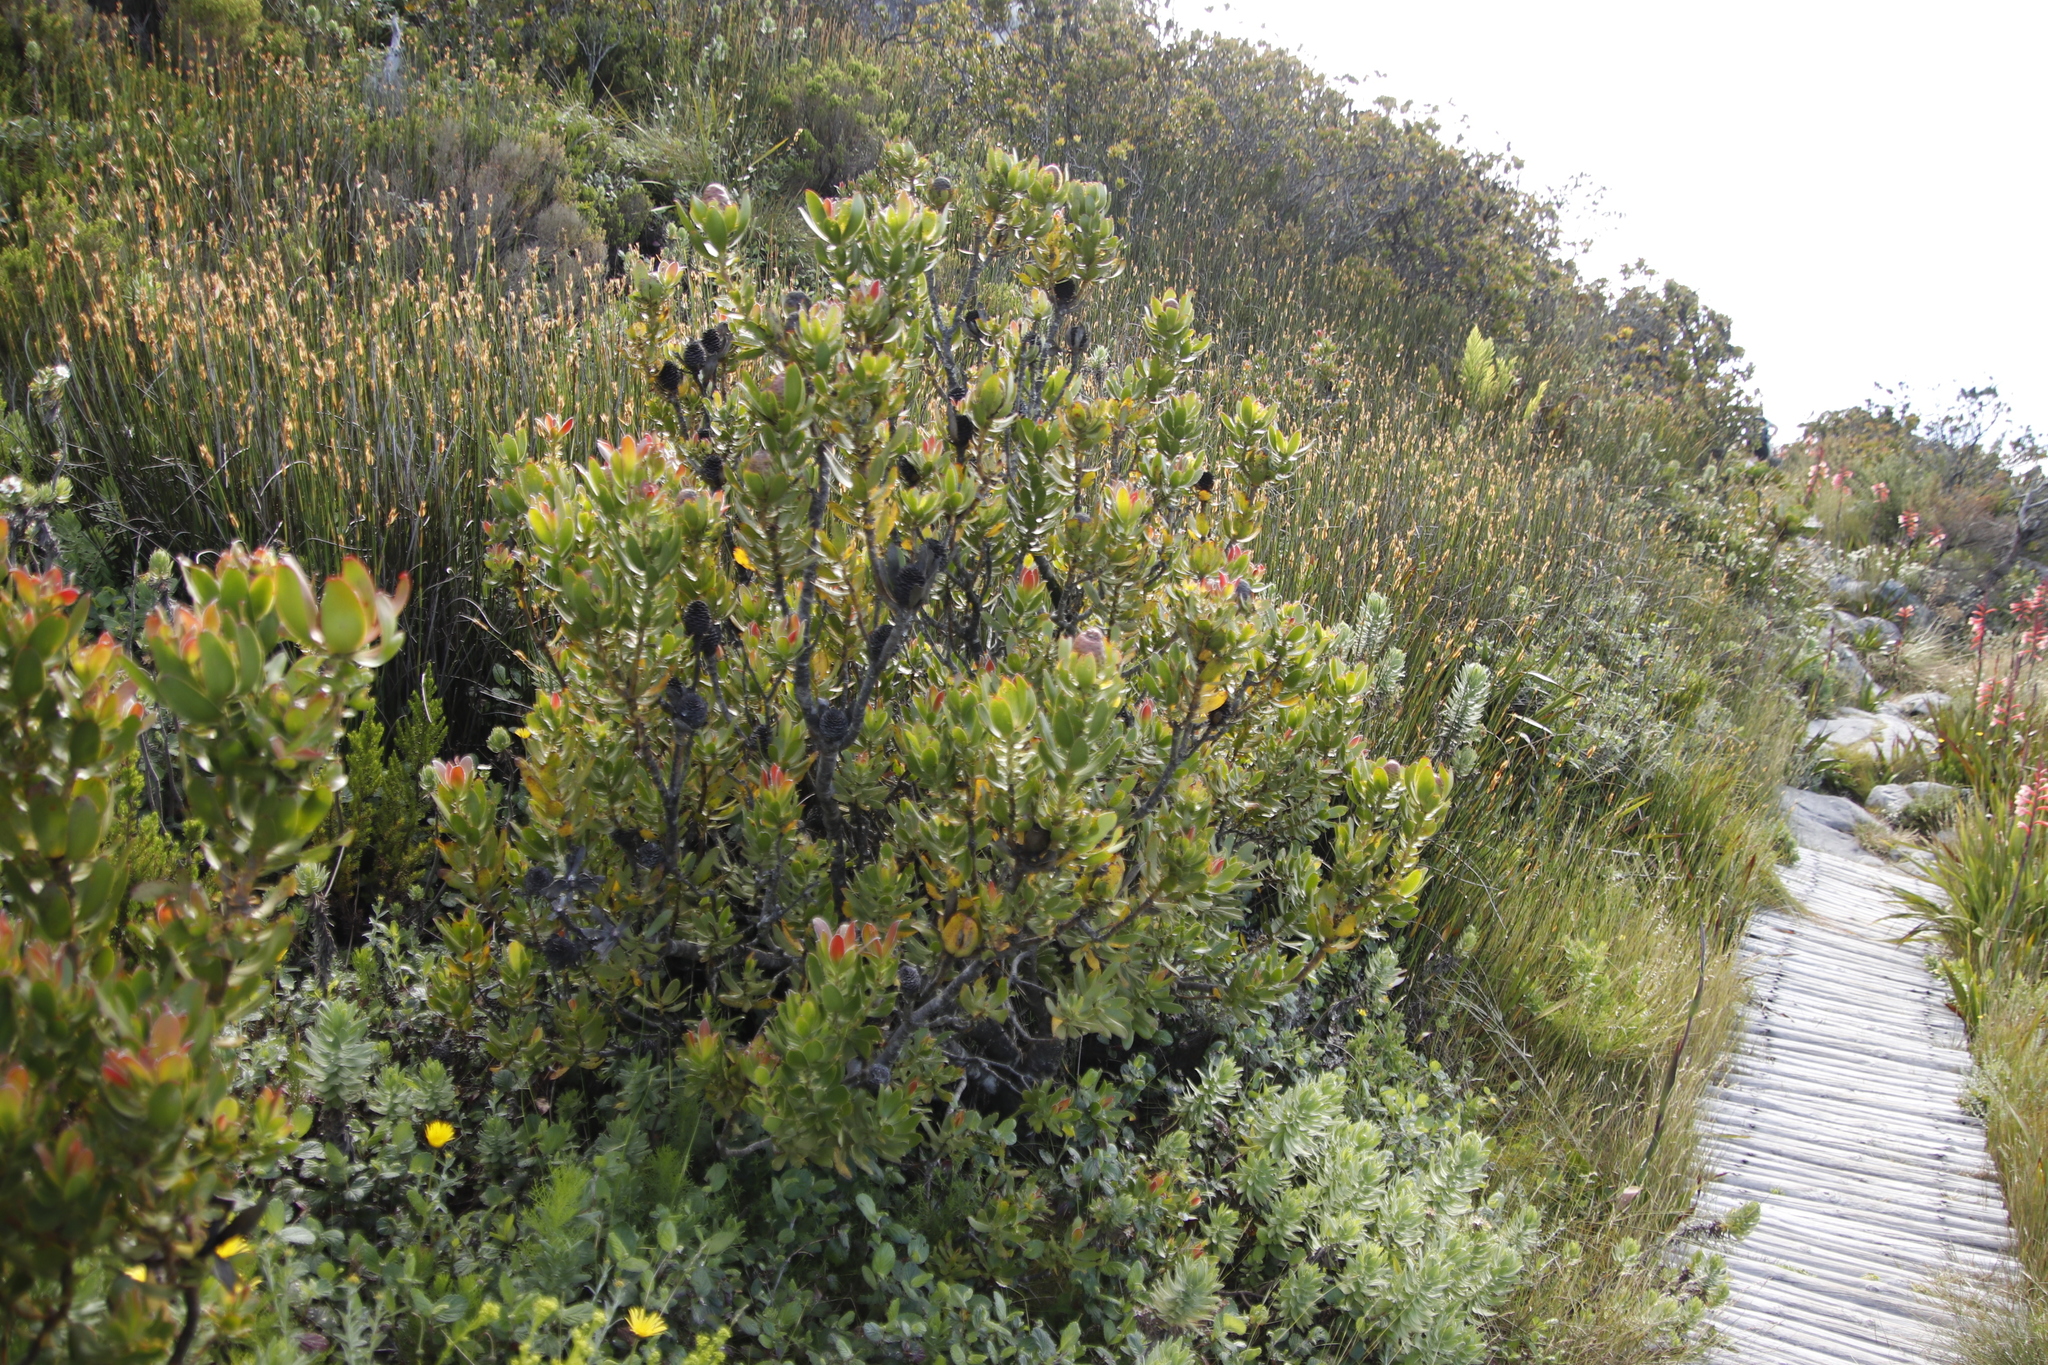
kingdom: Plantae
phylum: Tracheophyta
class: Magnoliopsida
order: Proteales
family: Proteaceae
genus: Leucadendron
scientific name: Leucadendron strobilinum
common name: Mountain rose
